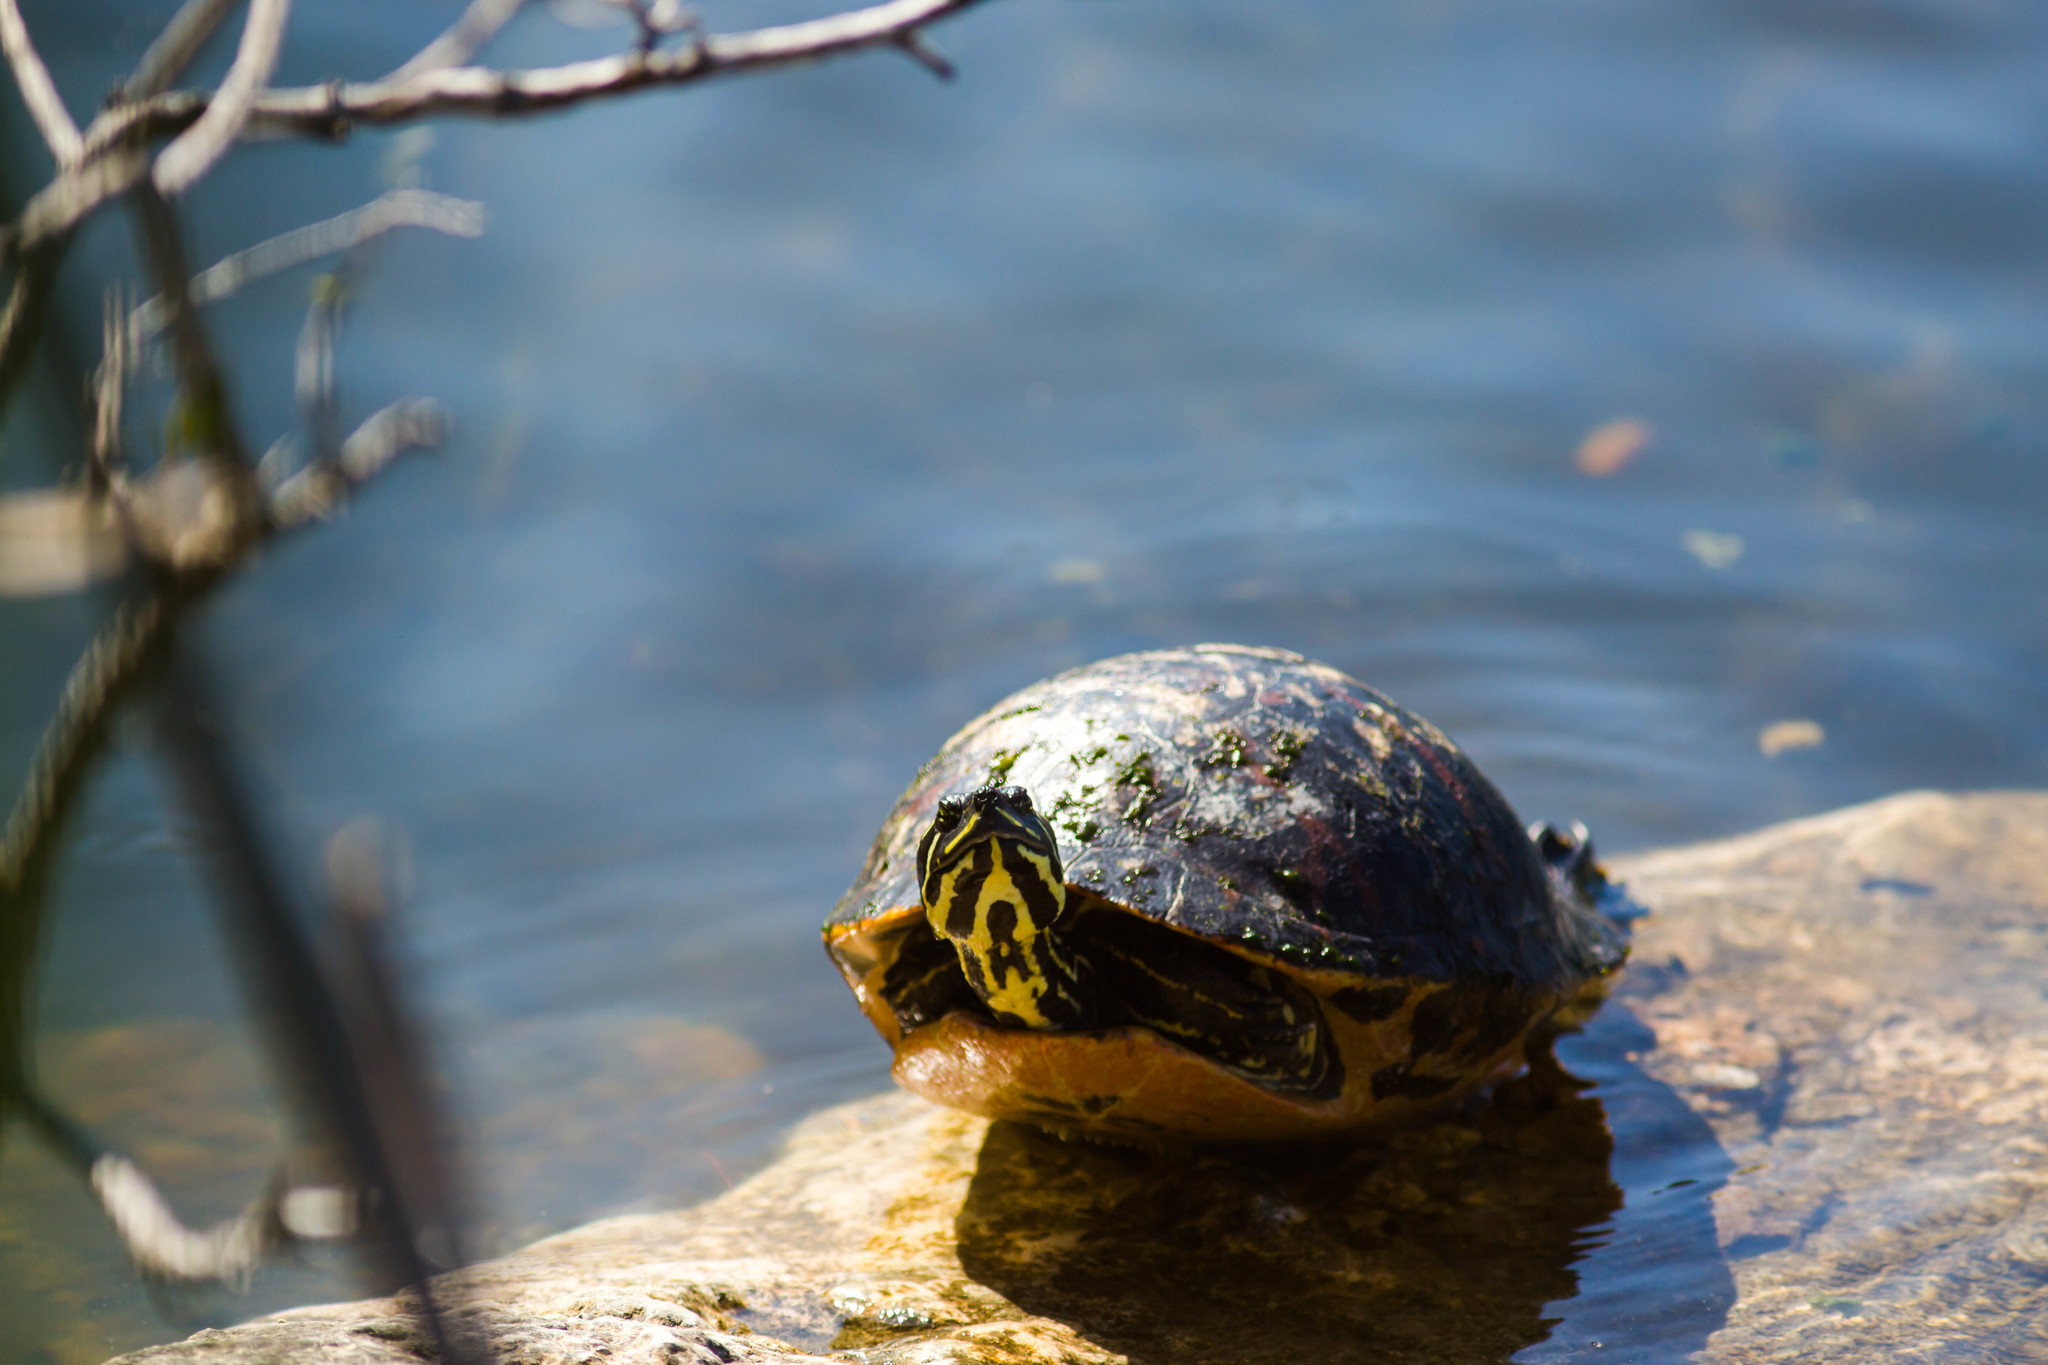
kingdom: Animalia
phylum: Chordata
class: Testudines
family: Emydidae
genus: Pseudemys
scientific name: Pseudemys nelsoni
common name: Florida red-bellied turtle
